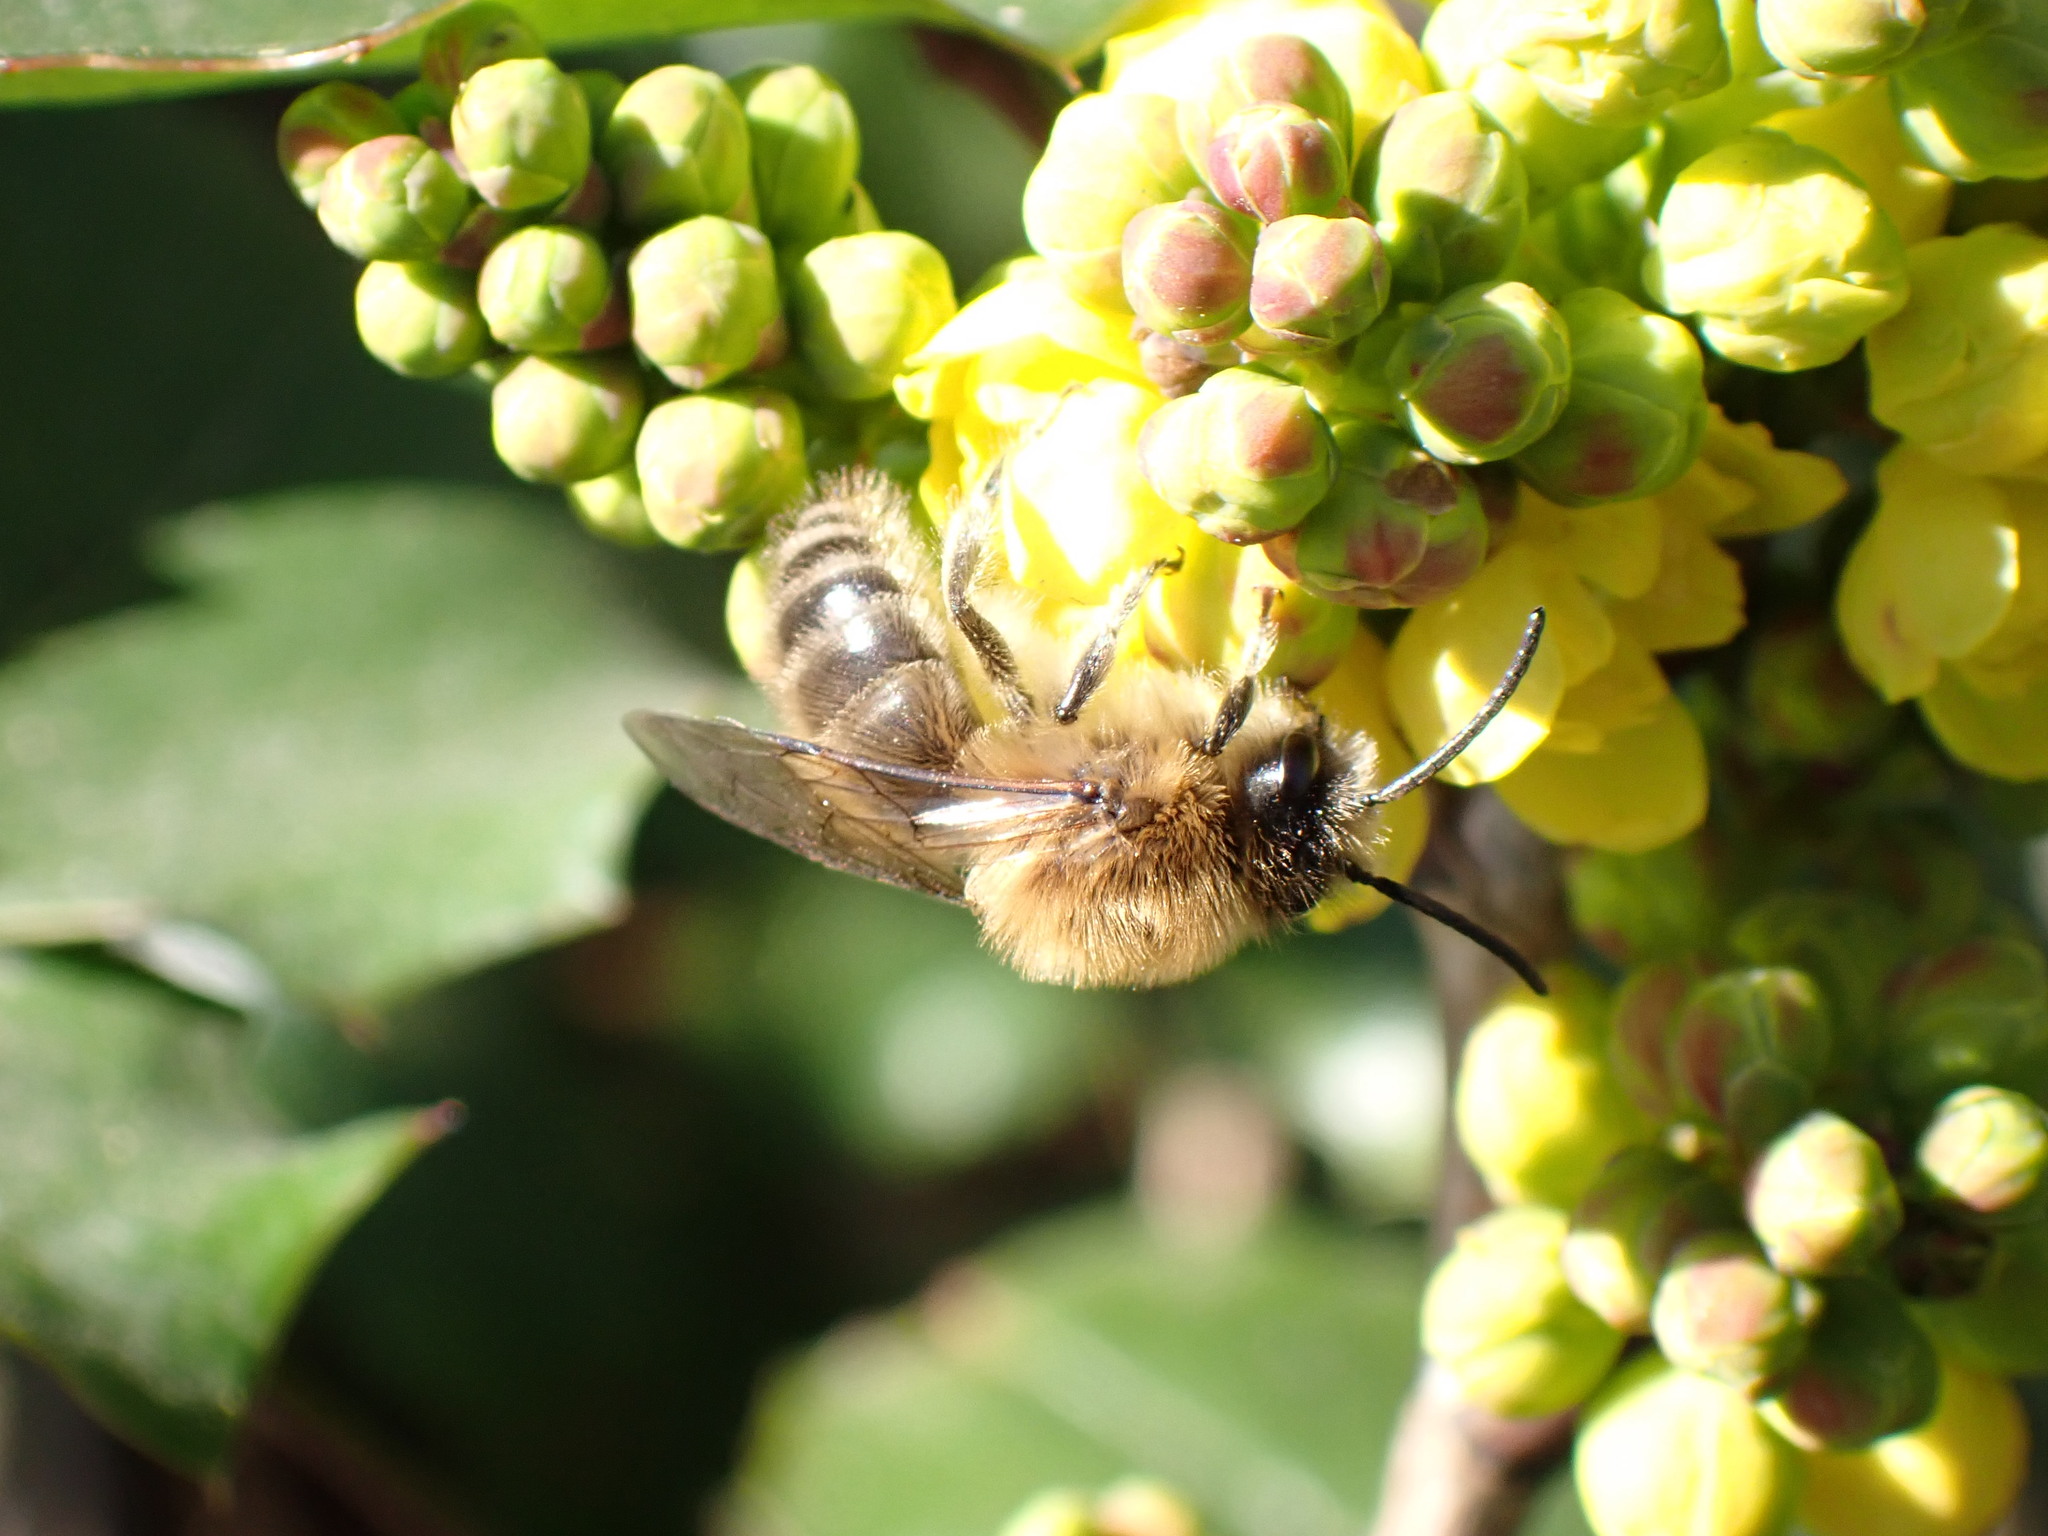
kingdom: Animalia
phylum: Arthropoda
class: Insecta
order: Hymenoptera
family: Colletidae
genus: Colletes
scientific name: Colletes cunicularius
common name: Early colletes
